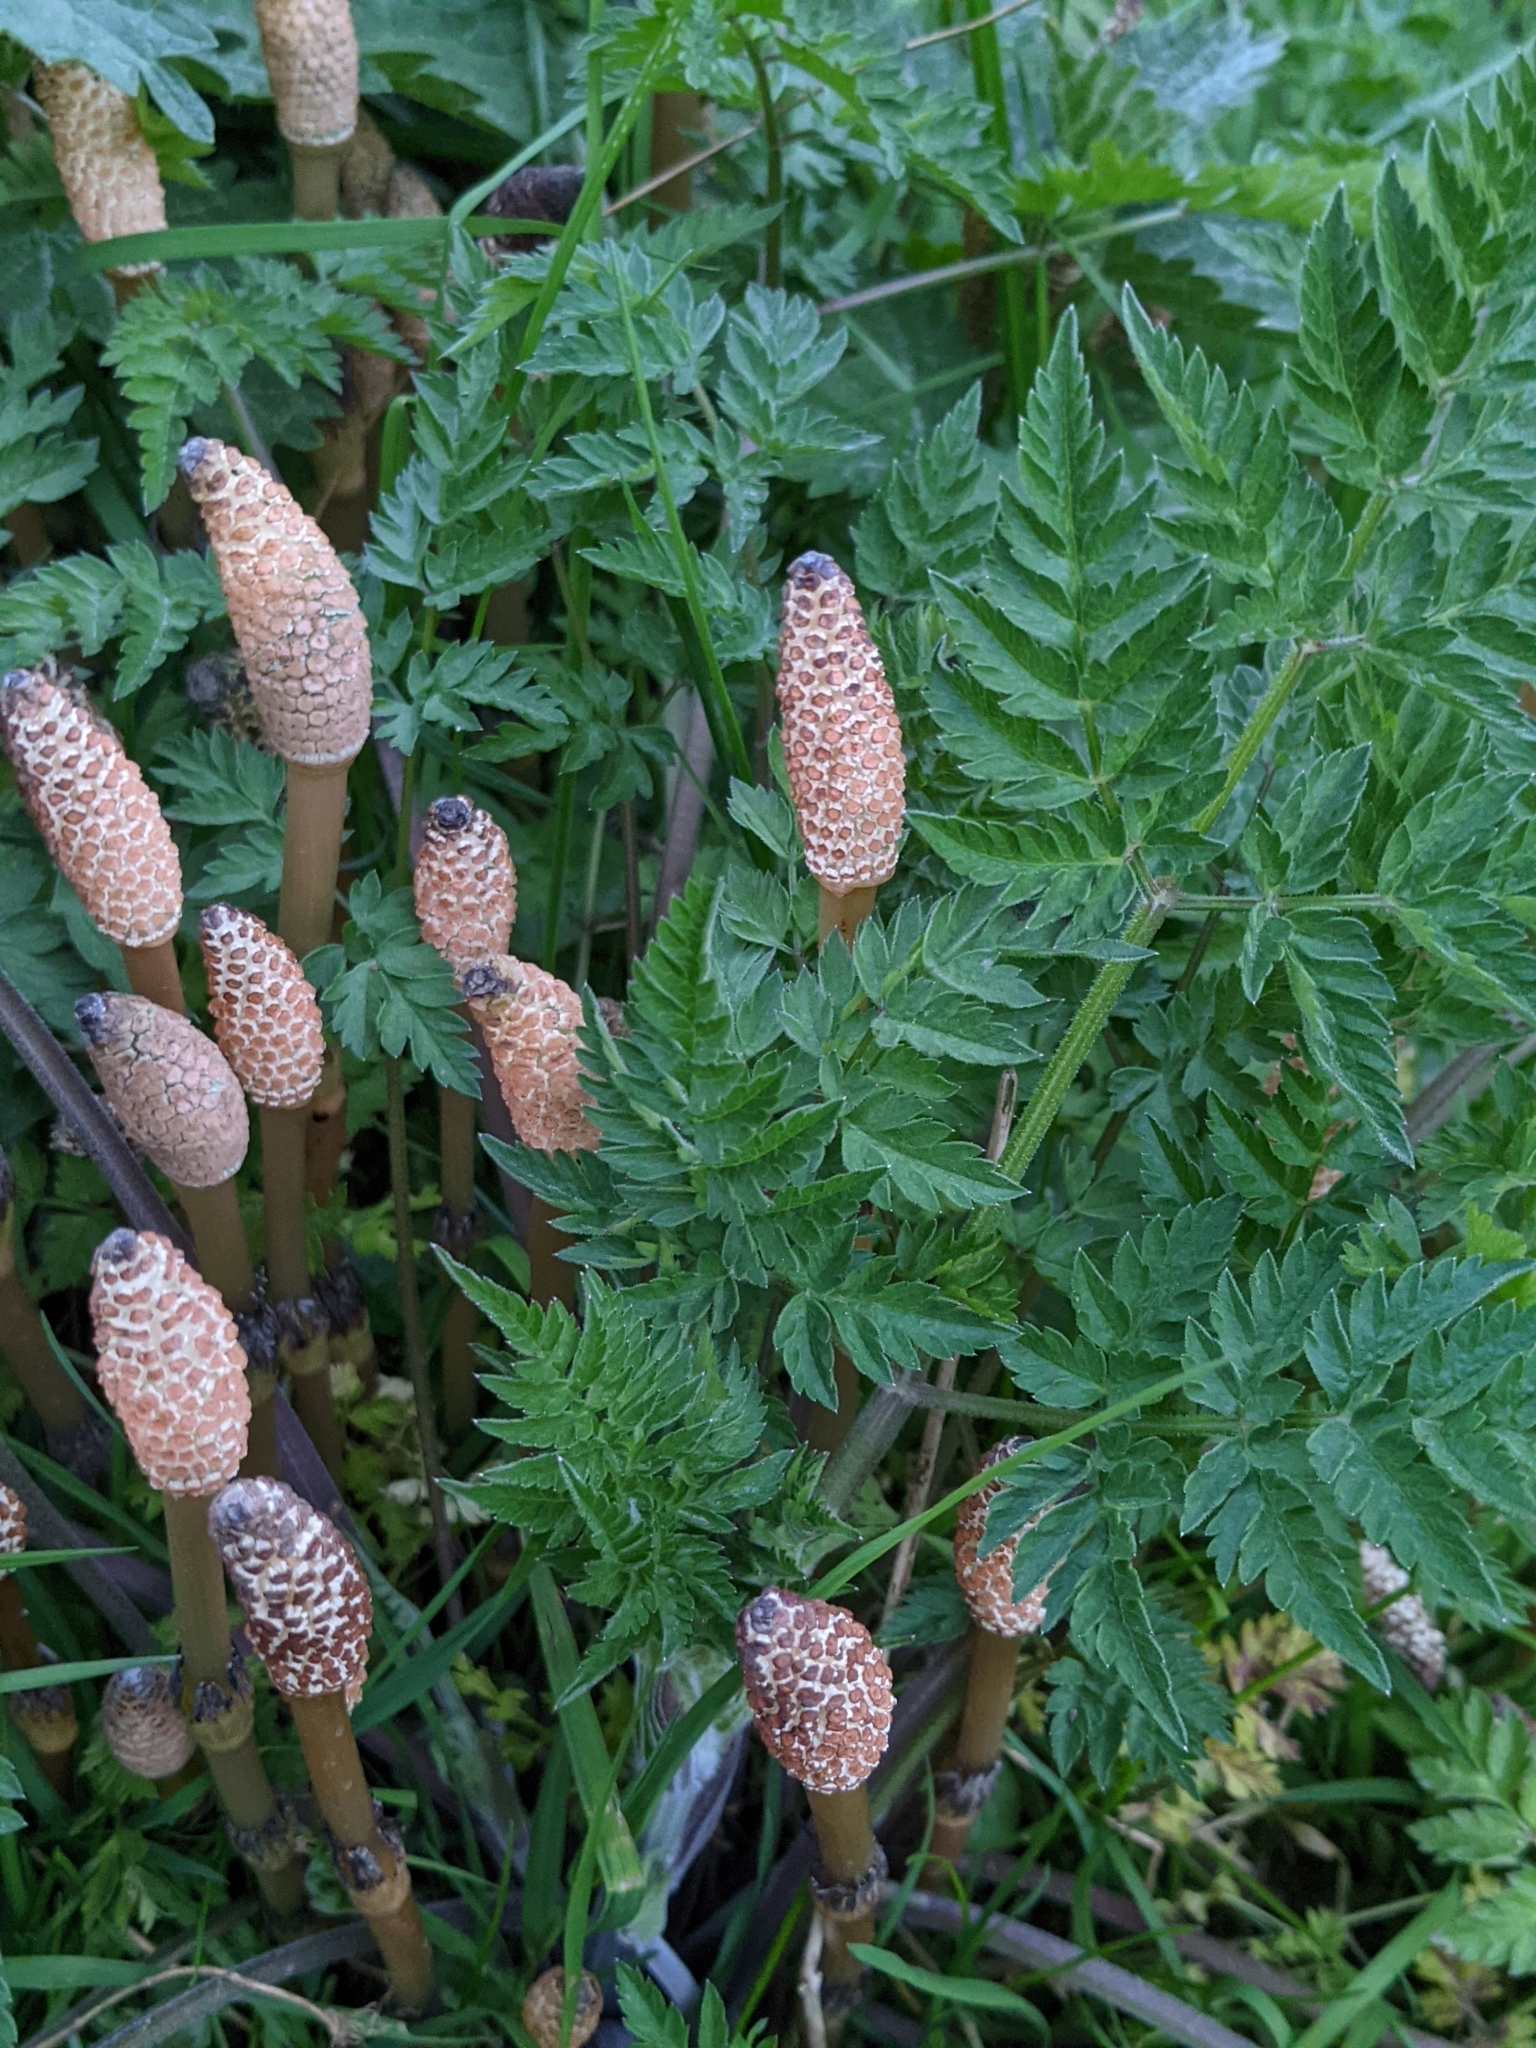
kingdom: Plantae
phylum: Tracheophyta
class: Polypodiopsida
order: Equisetales
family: Equisetaceae
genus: Equisetum
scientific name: Equisetum arvense
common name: Field horsetail
